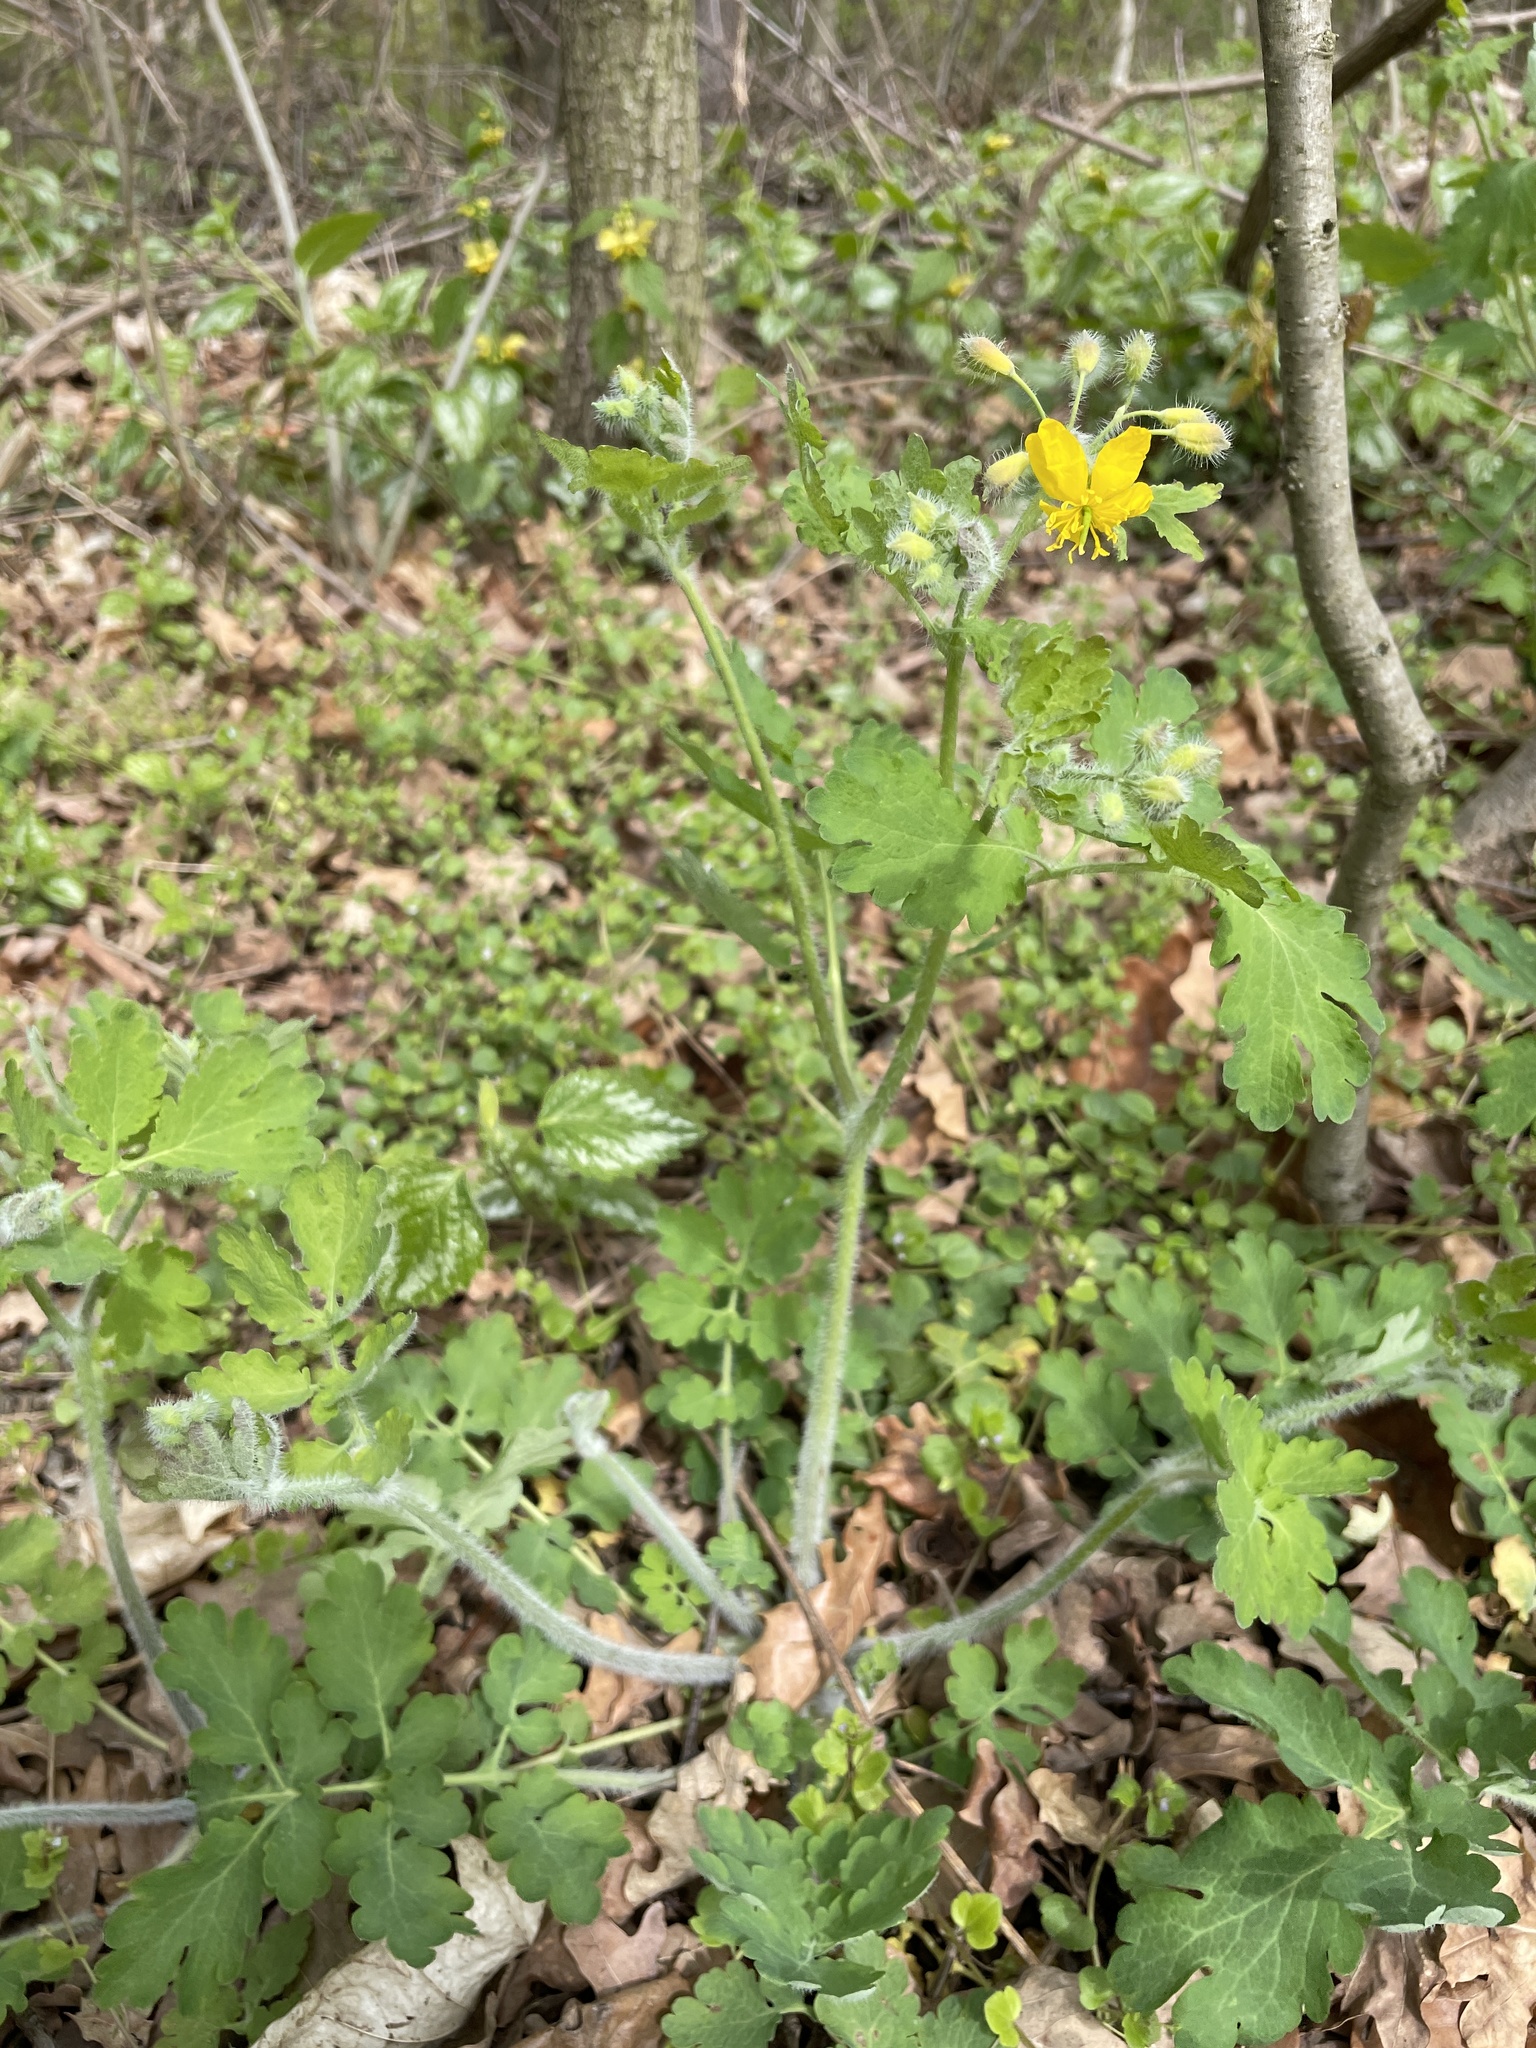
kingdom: Plantae
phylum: Tracheophyta
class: Magnoliopsida
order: Ranunculales
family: Papaveraceae
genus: Chelidonium
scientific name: Chelidonium majus
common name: Greater celandine
